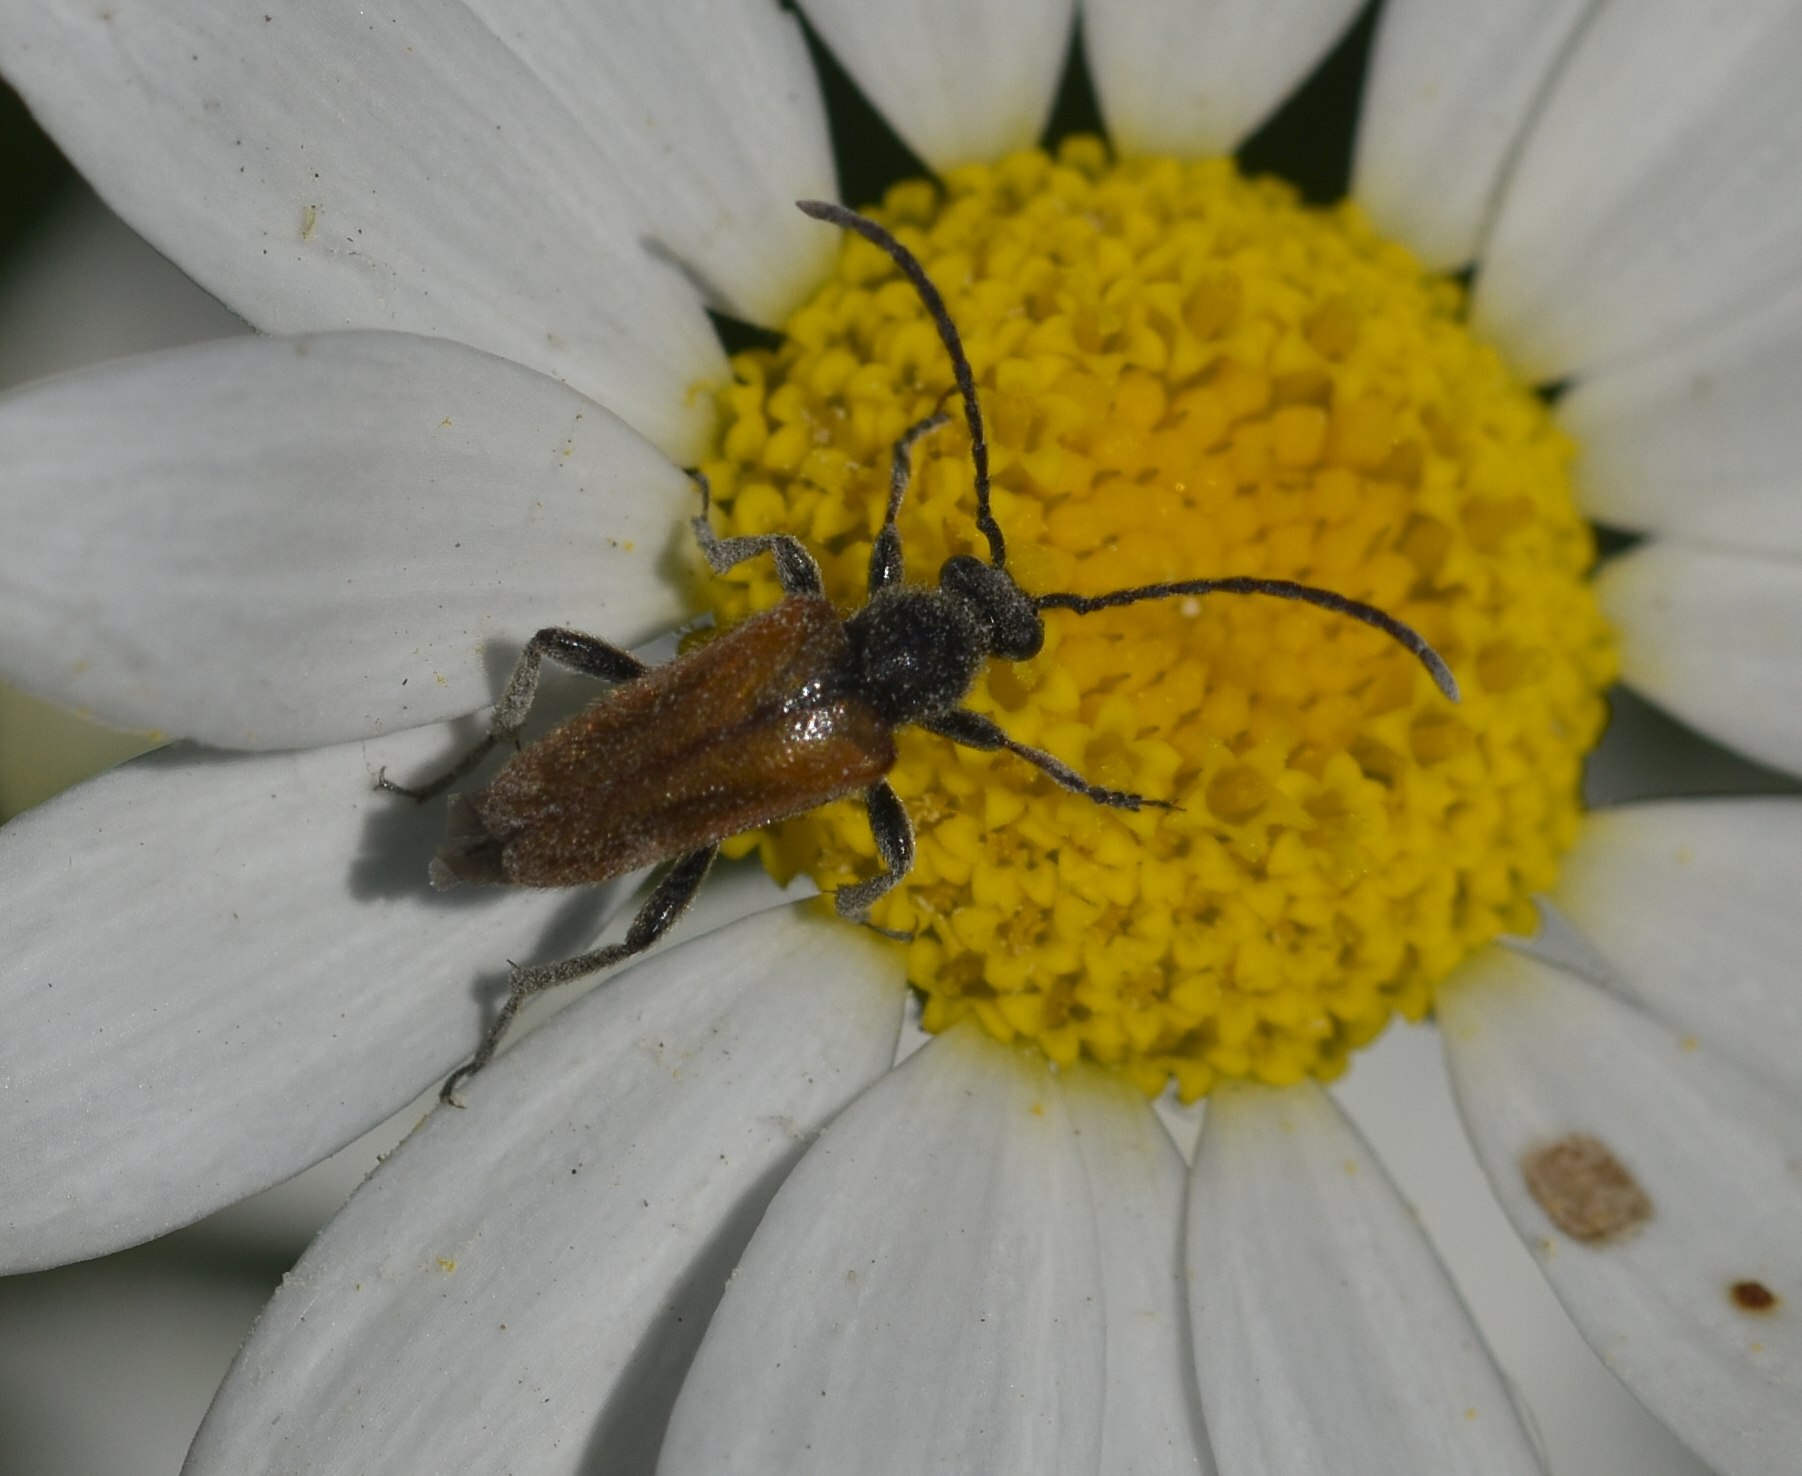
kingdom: Animalia
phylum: Arthropoda
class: Insecta
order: Coleoptera
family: Cerambycidae
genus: Pseudovadonia
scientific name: Pseudovadonia livida
